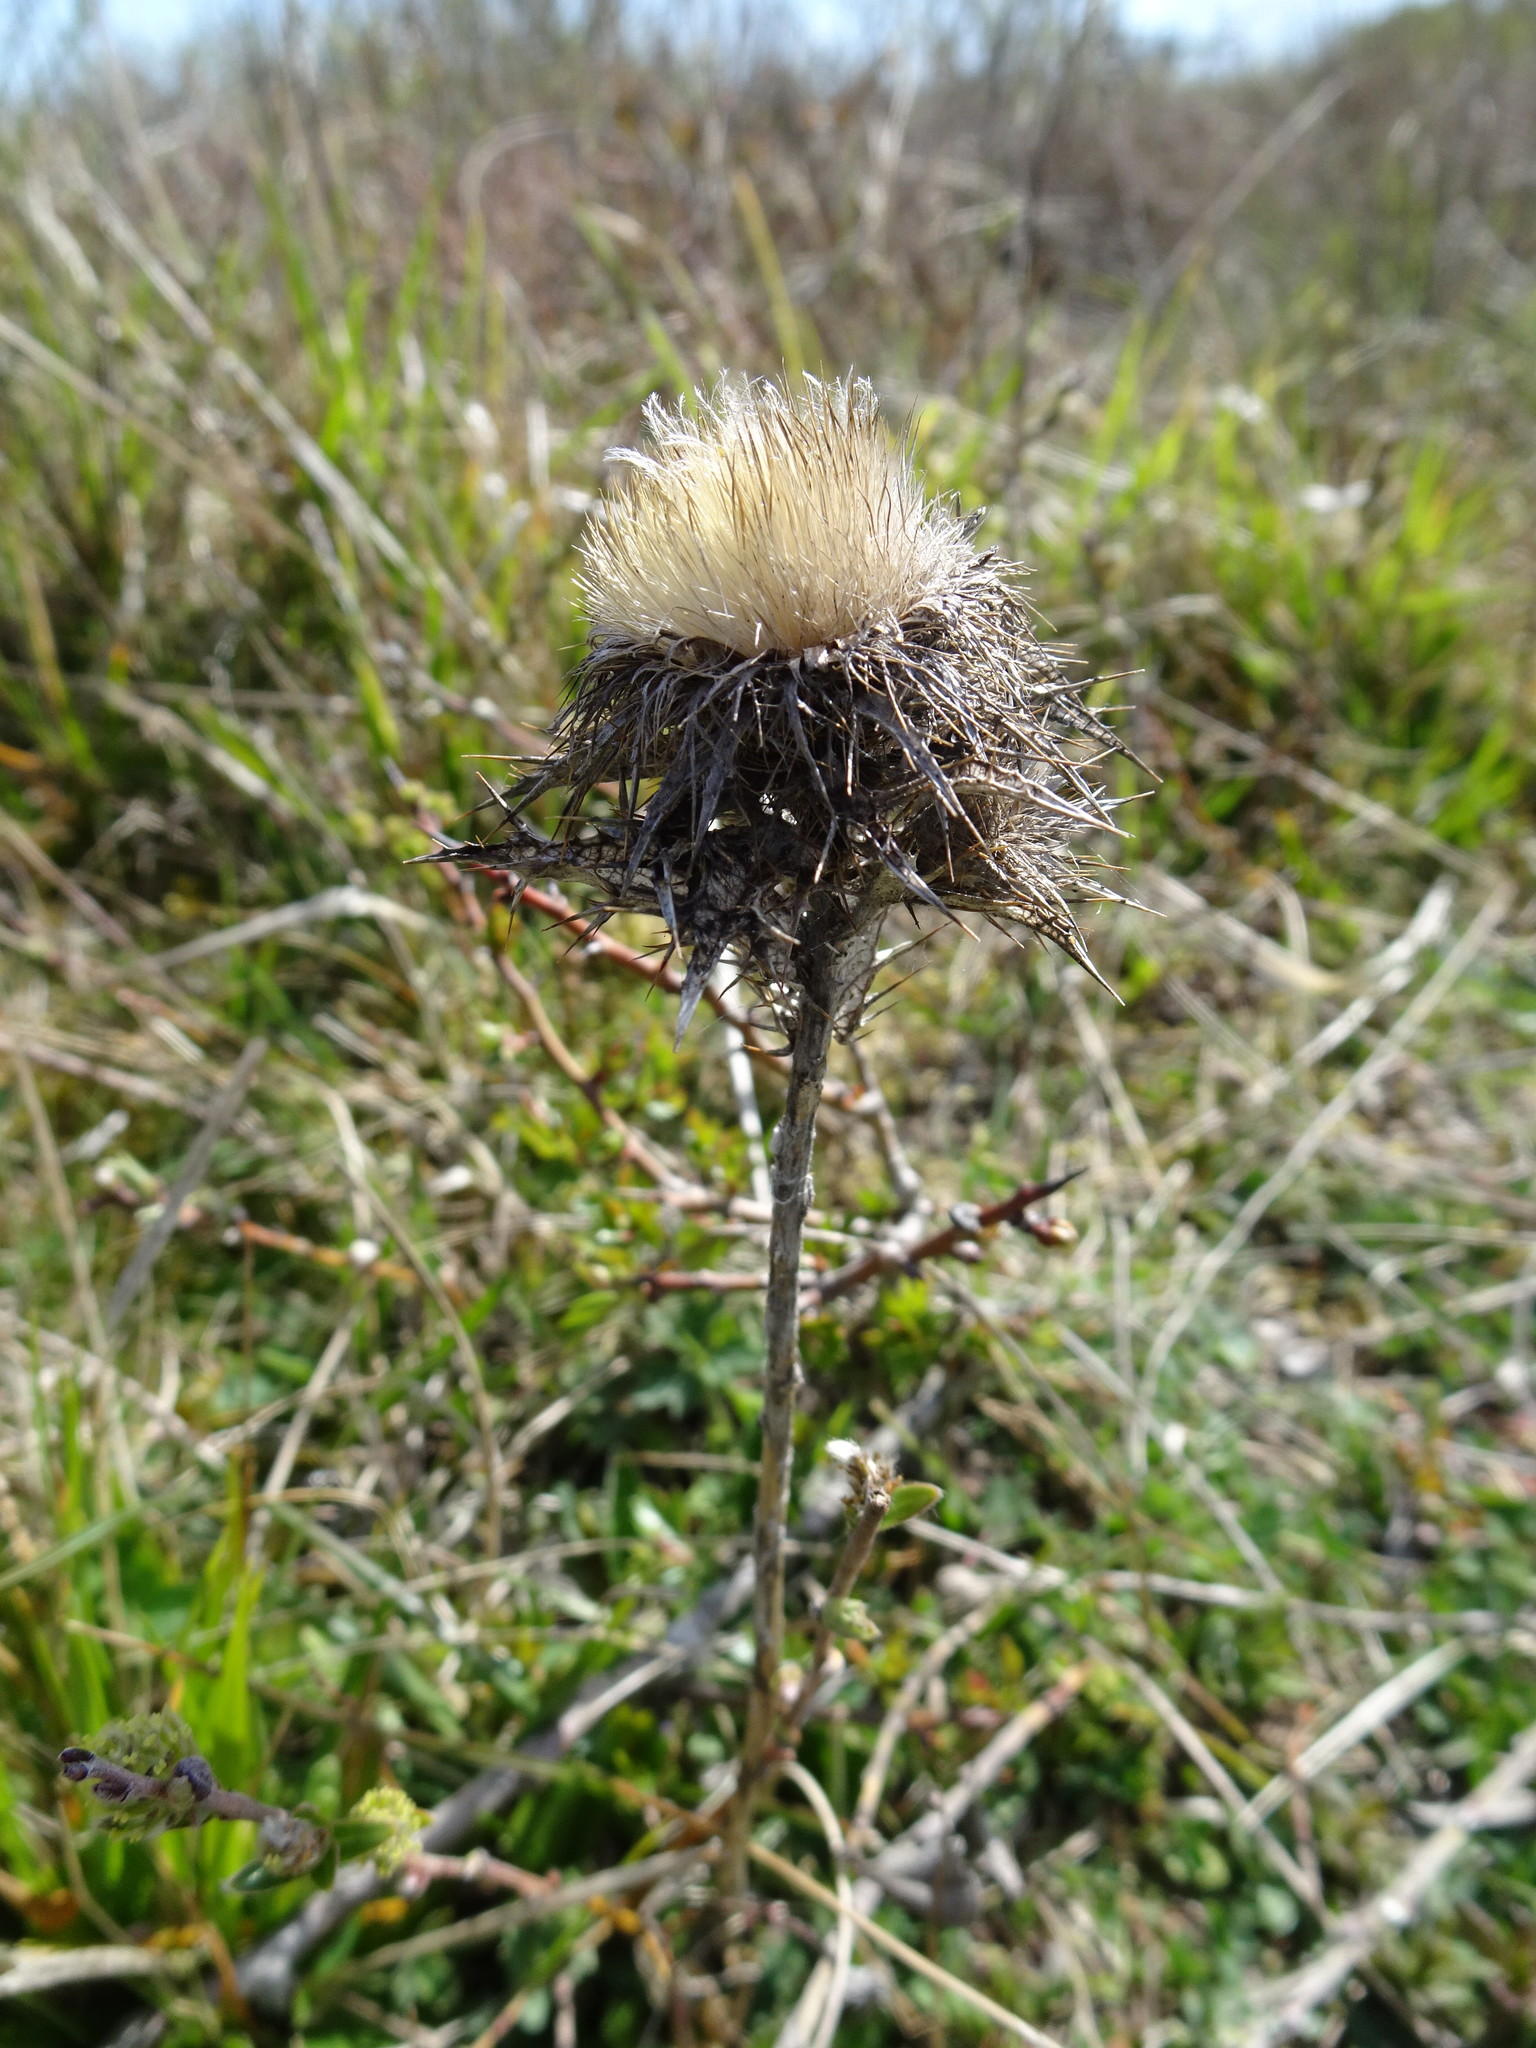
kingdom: Plantae
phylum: Tracheophyta
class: Magnoliopsida
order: Asterales
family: Asteraceae
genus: Carlina
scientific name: Carlina vulgaris
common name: Carline thistle
